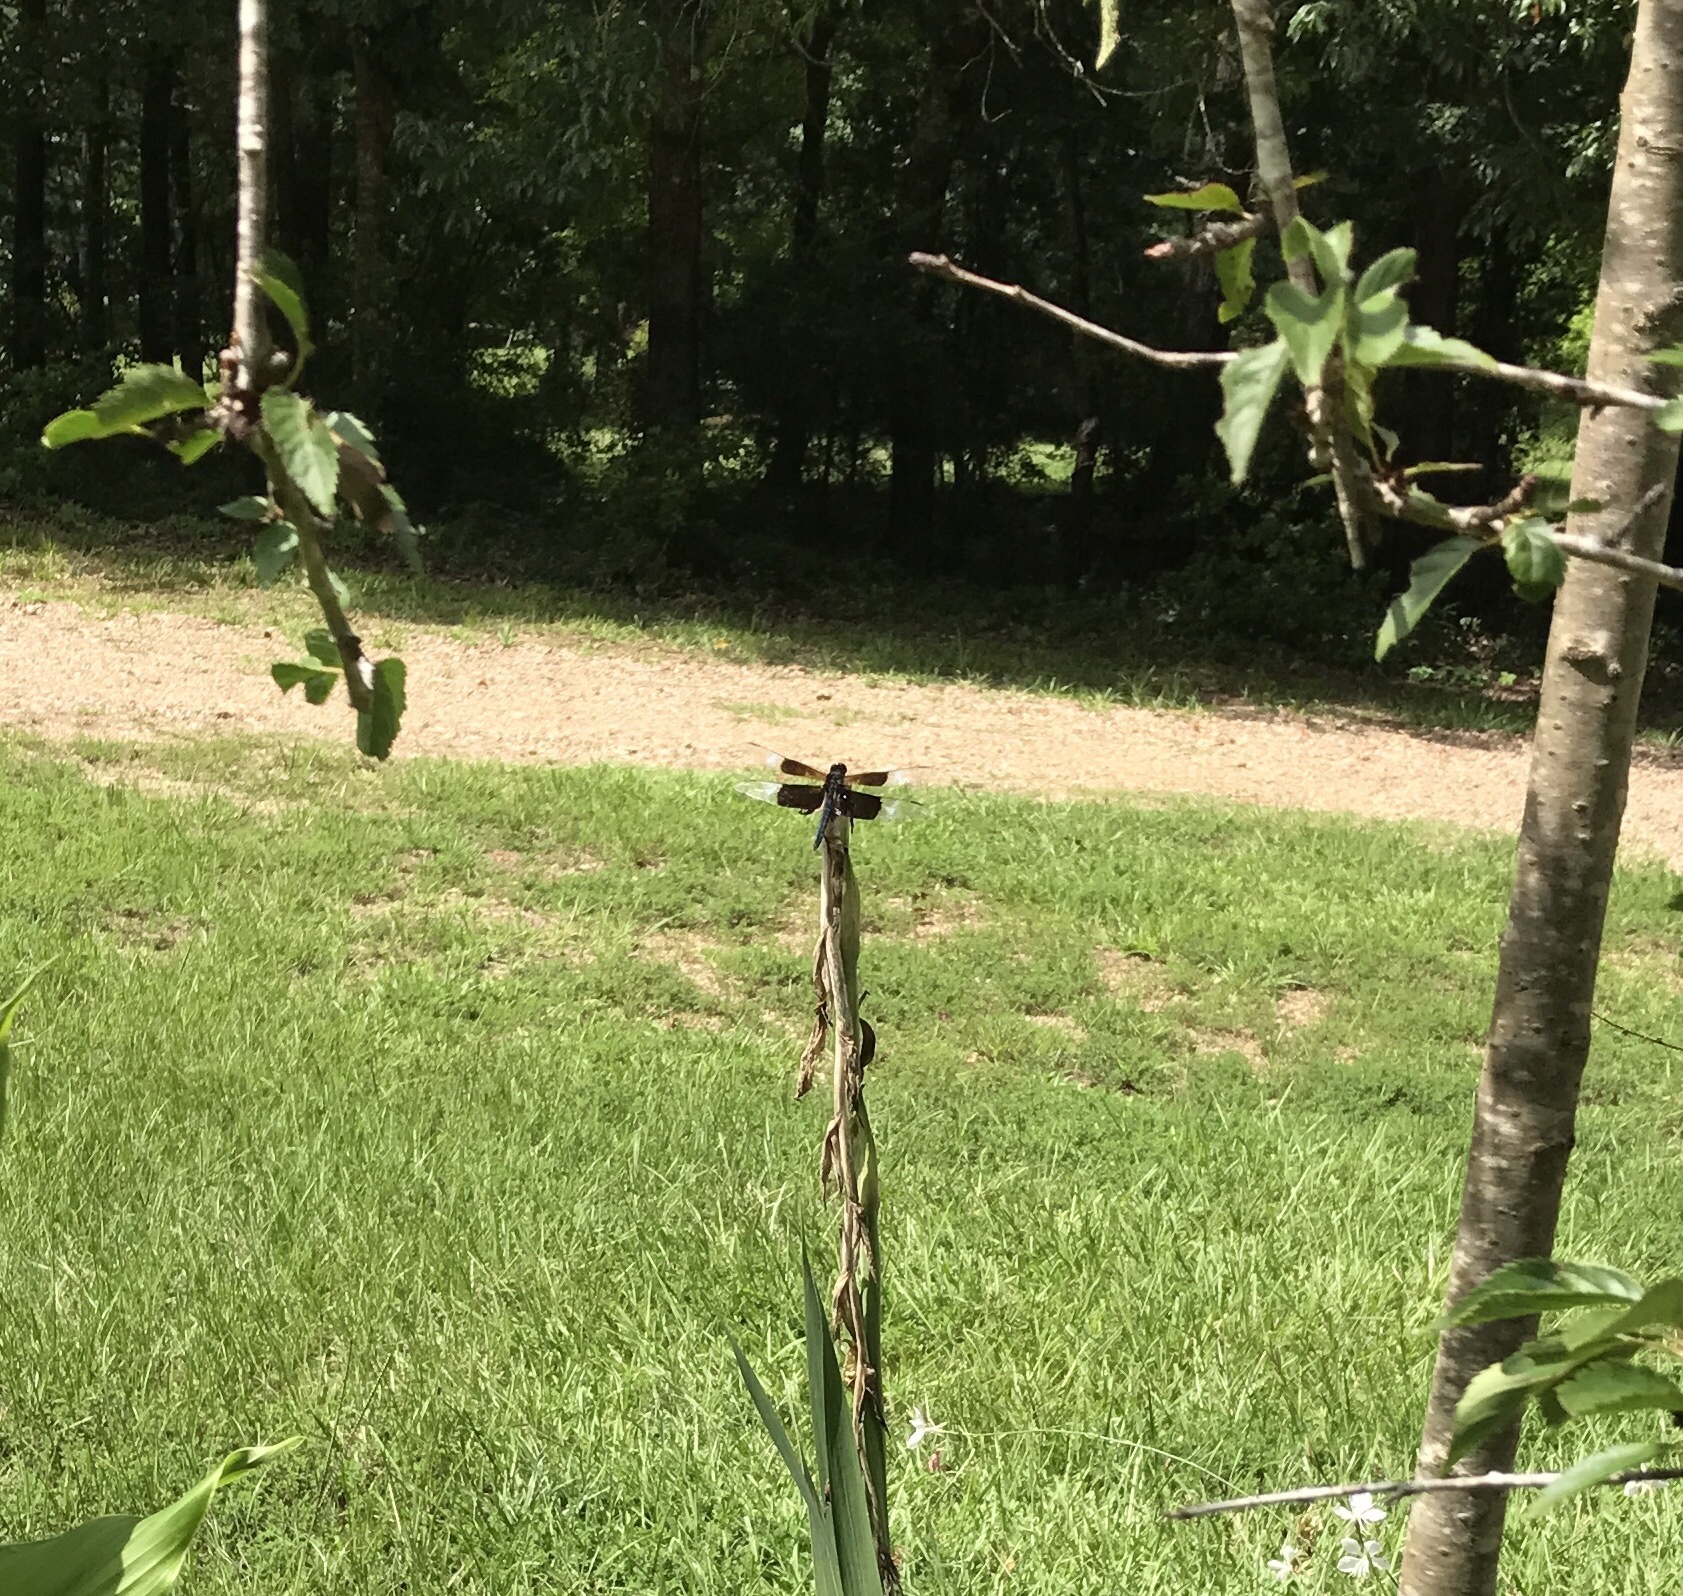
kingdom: Animalia
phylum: Arthropoda
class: Insecta
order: Odonata
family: Libellulidae
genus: Libellula
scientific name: Libellula luctuosa
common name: Widow skimmer
